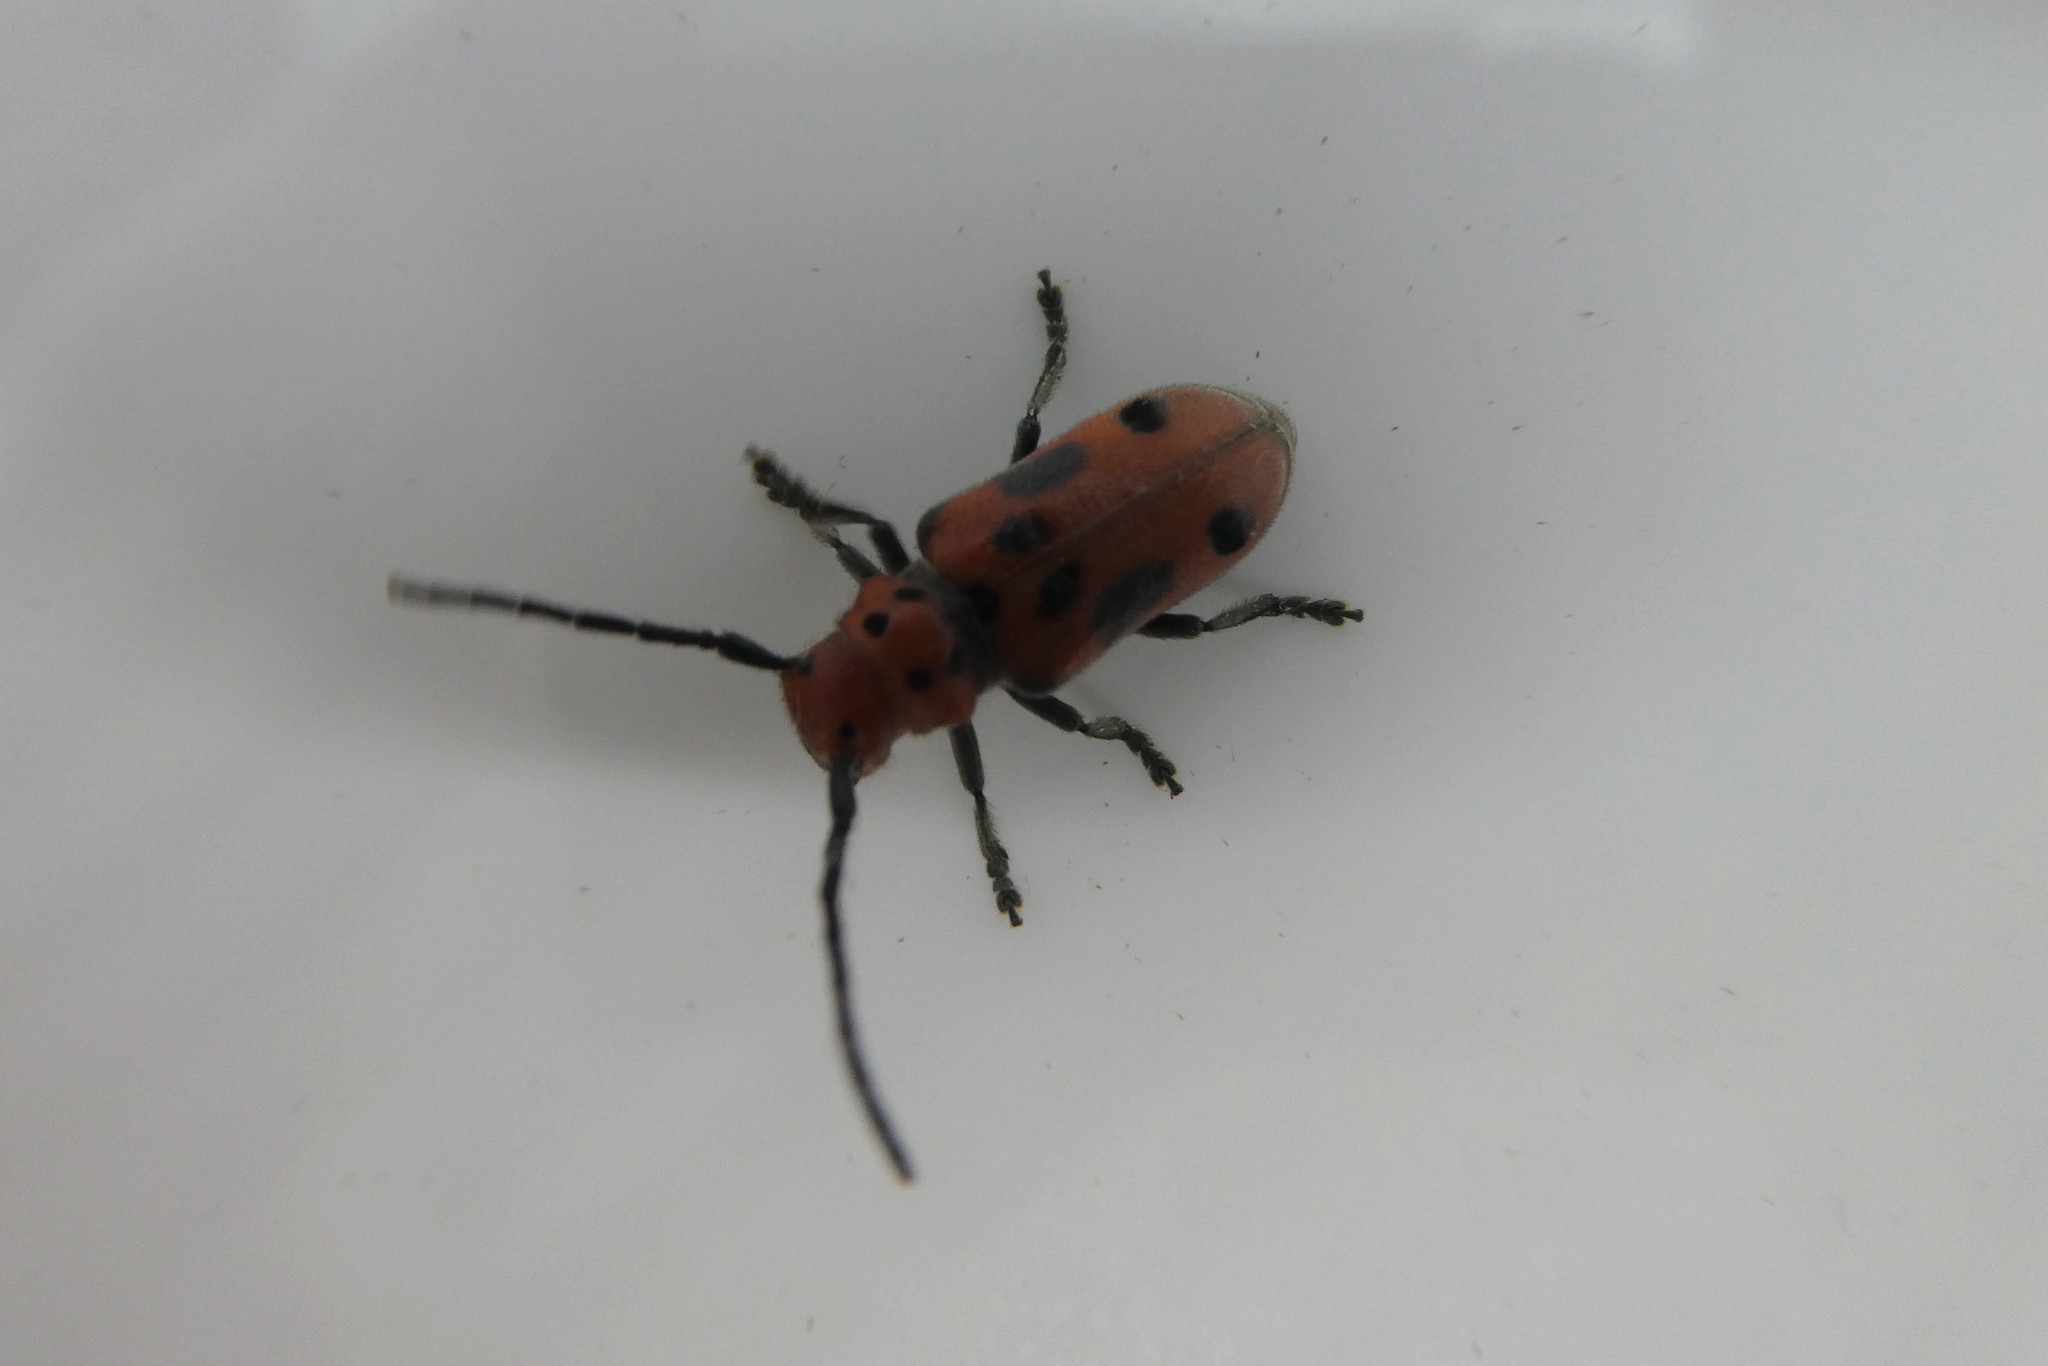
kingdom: Animalia
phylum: Arthropoda
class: Insecta
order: Coleoptera
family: Cerambycidae
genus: Tetraopes
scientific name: Tetraopes tetrophthalmus
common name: Red milkweed beetle
